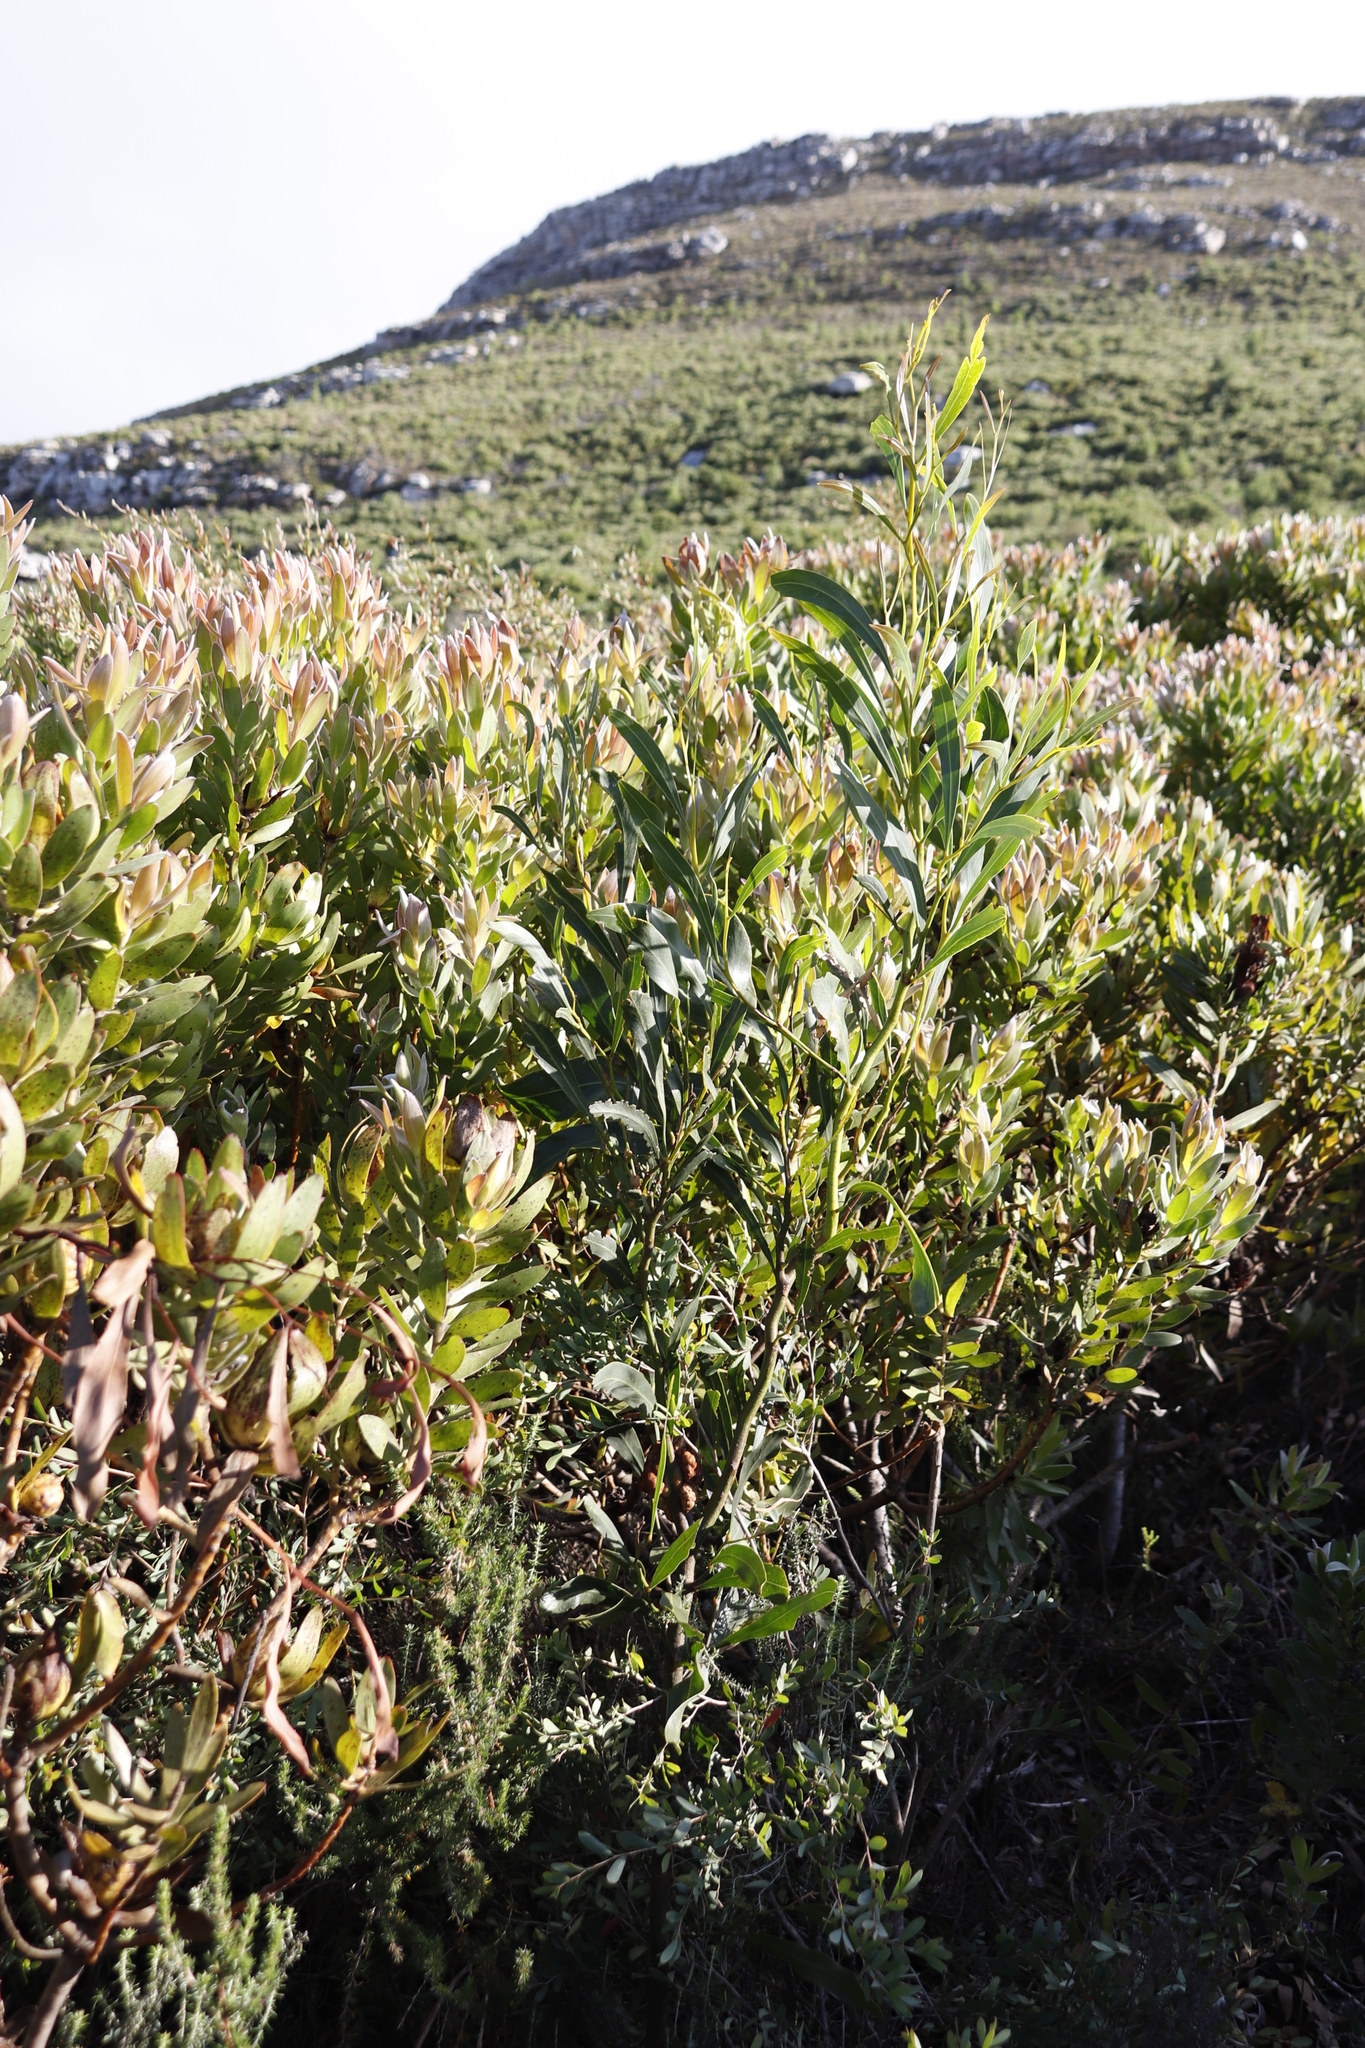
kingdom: Plantae
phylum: Tracheophyta
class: Magnoliopsida
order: Fabales
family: Fabaceae
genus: Acacia
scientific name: Acacia saligna
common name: Orange wattle
